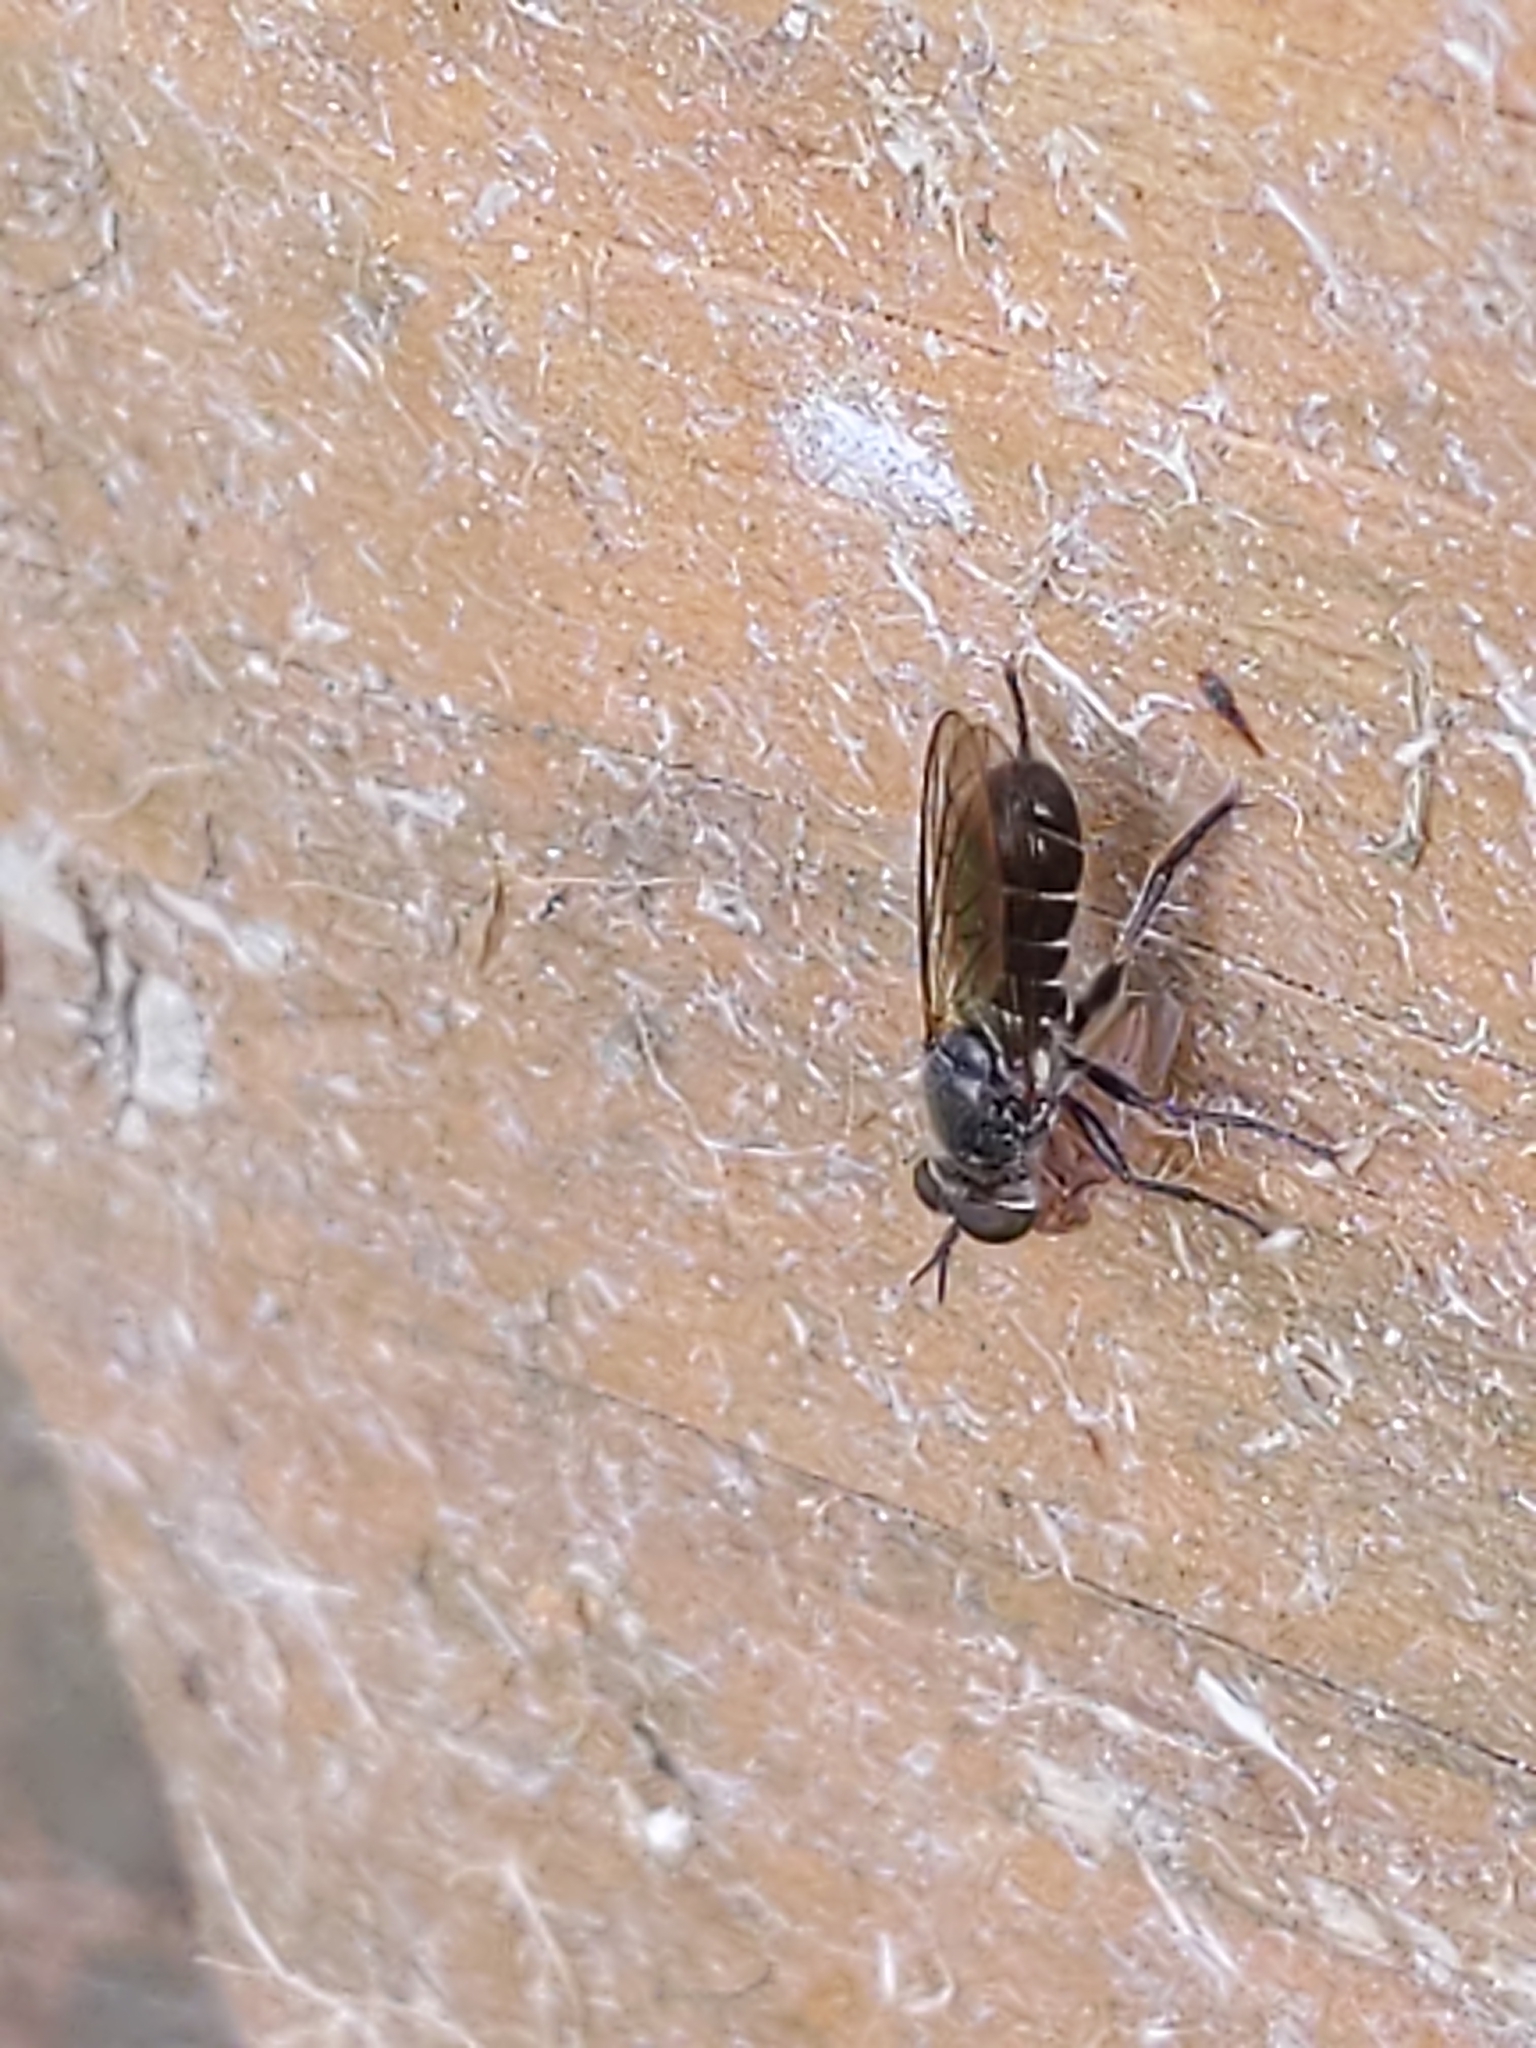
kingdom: Animalia
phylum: Arthropoda
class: Insecta
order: Diptera
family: Asilidae
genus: Atomosia
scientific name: Atomosia puella
